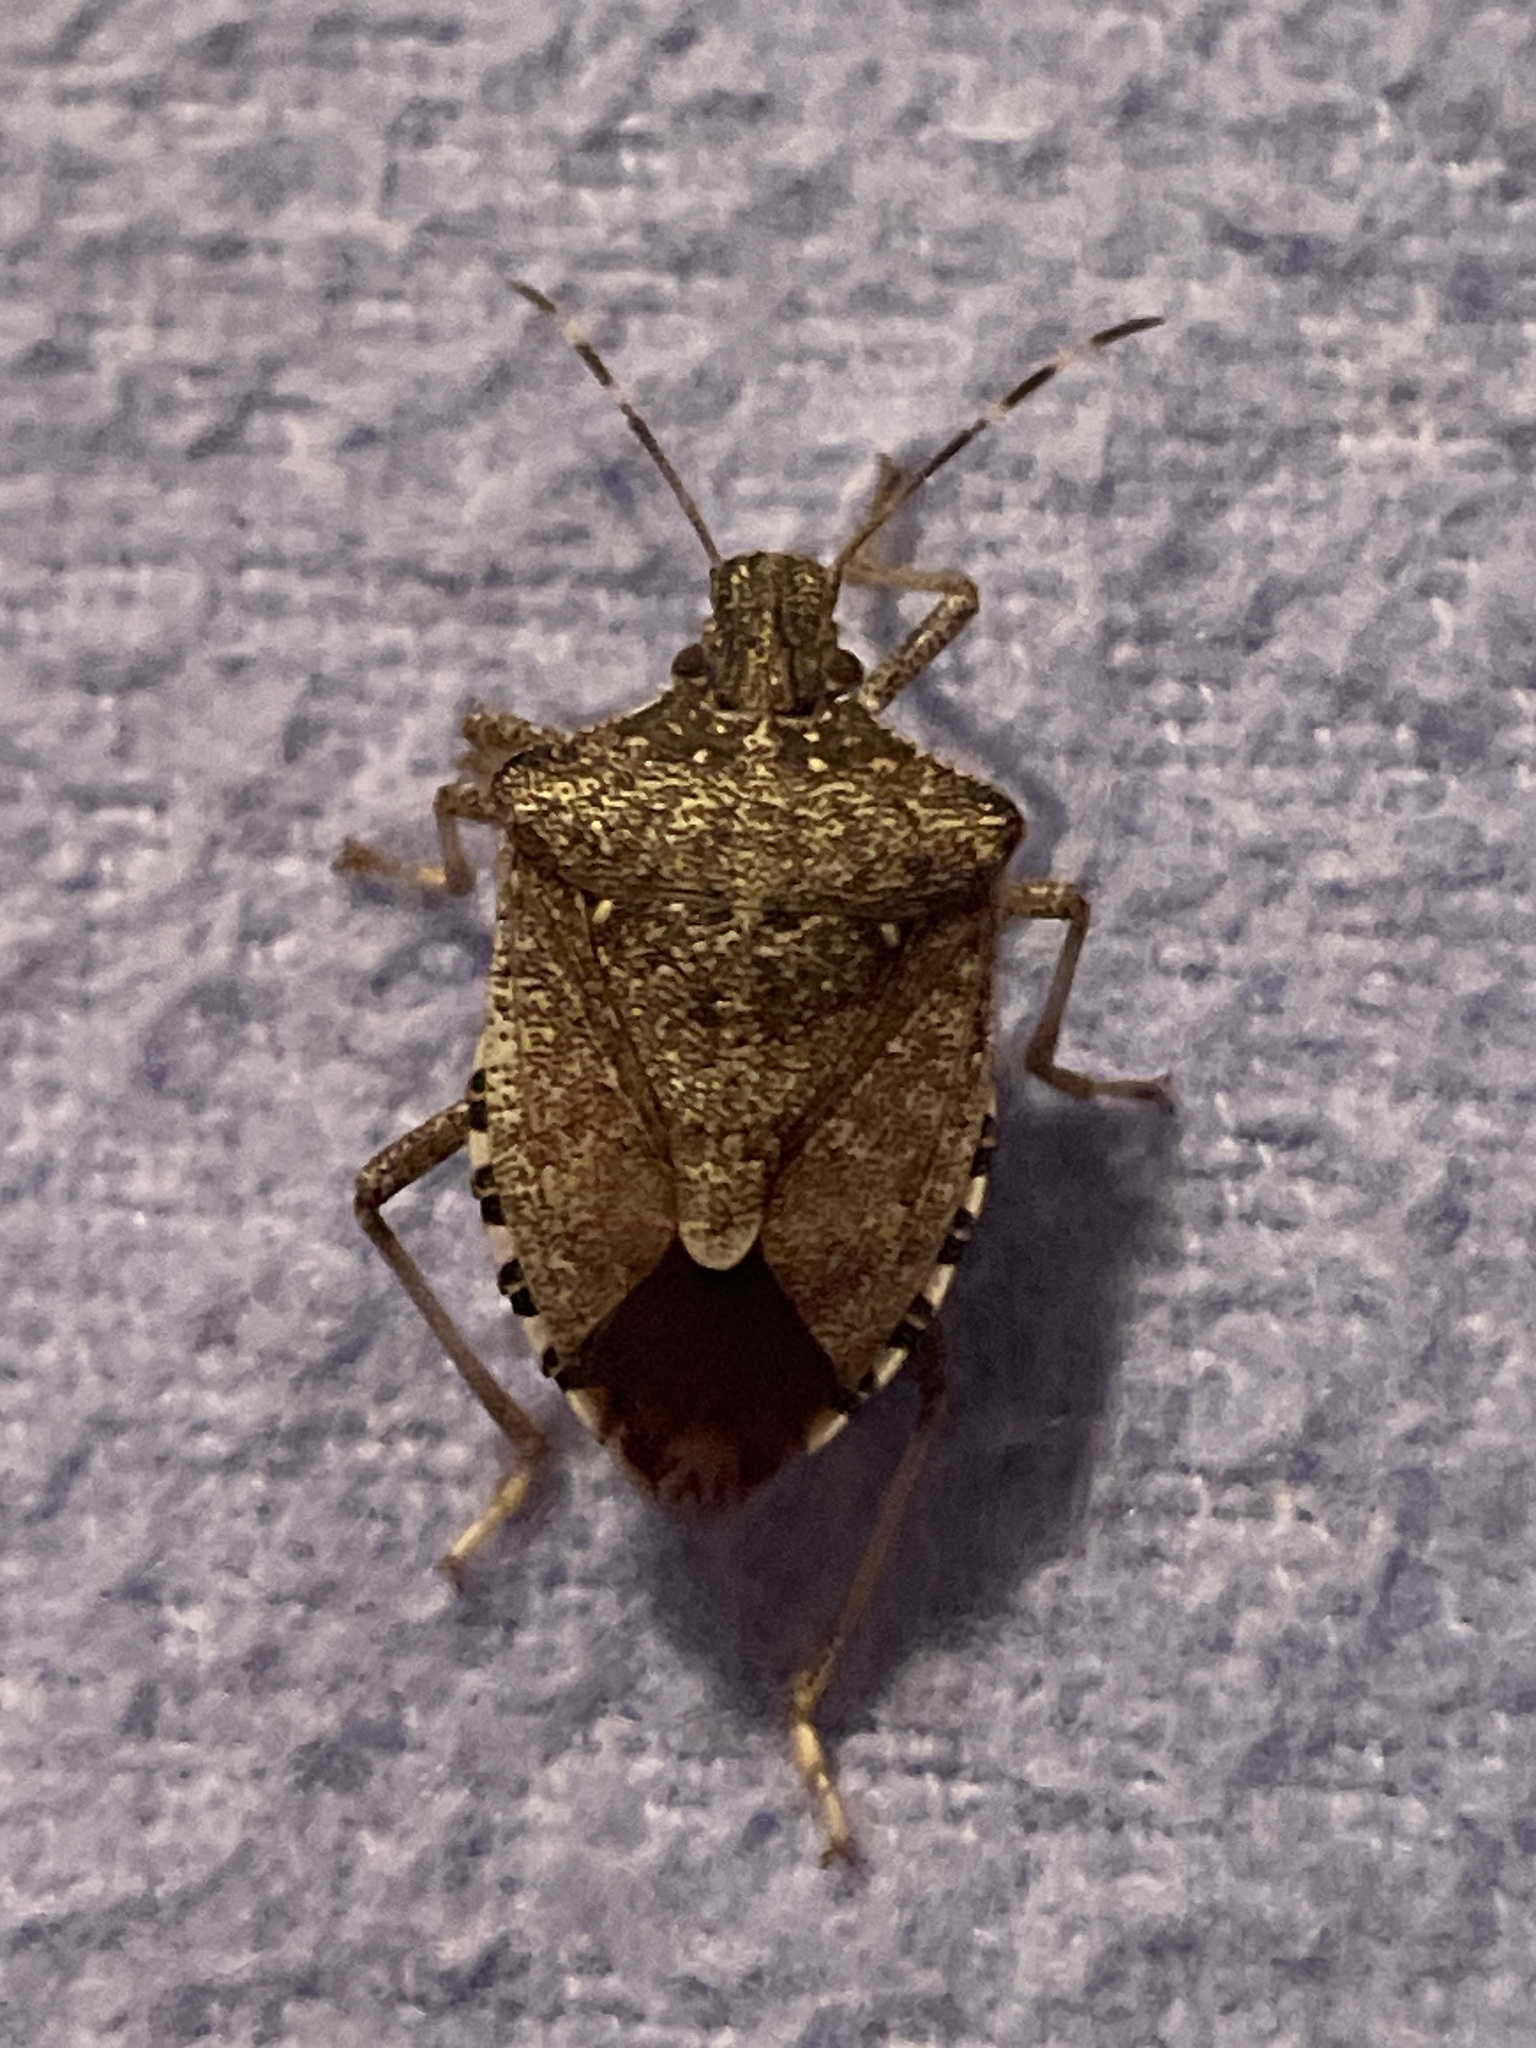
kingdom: Animalia
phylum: Arthropoda
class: Insecta
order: Hemiptera
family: Pentatomidae
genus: Halyomorpha
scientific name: Halyomorpha halys
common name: Brown marmorated stink bug
